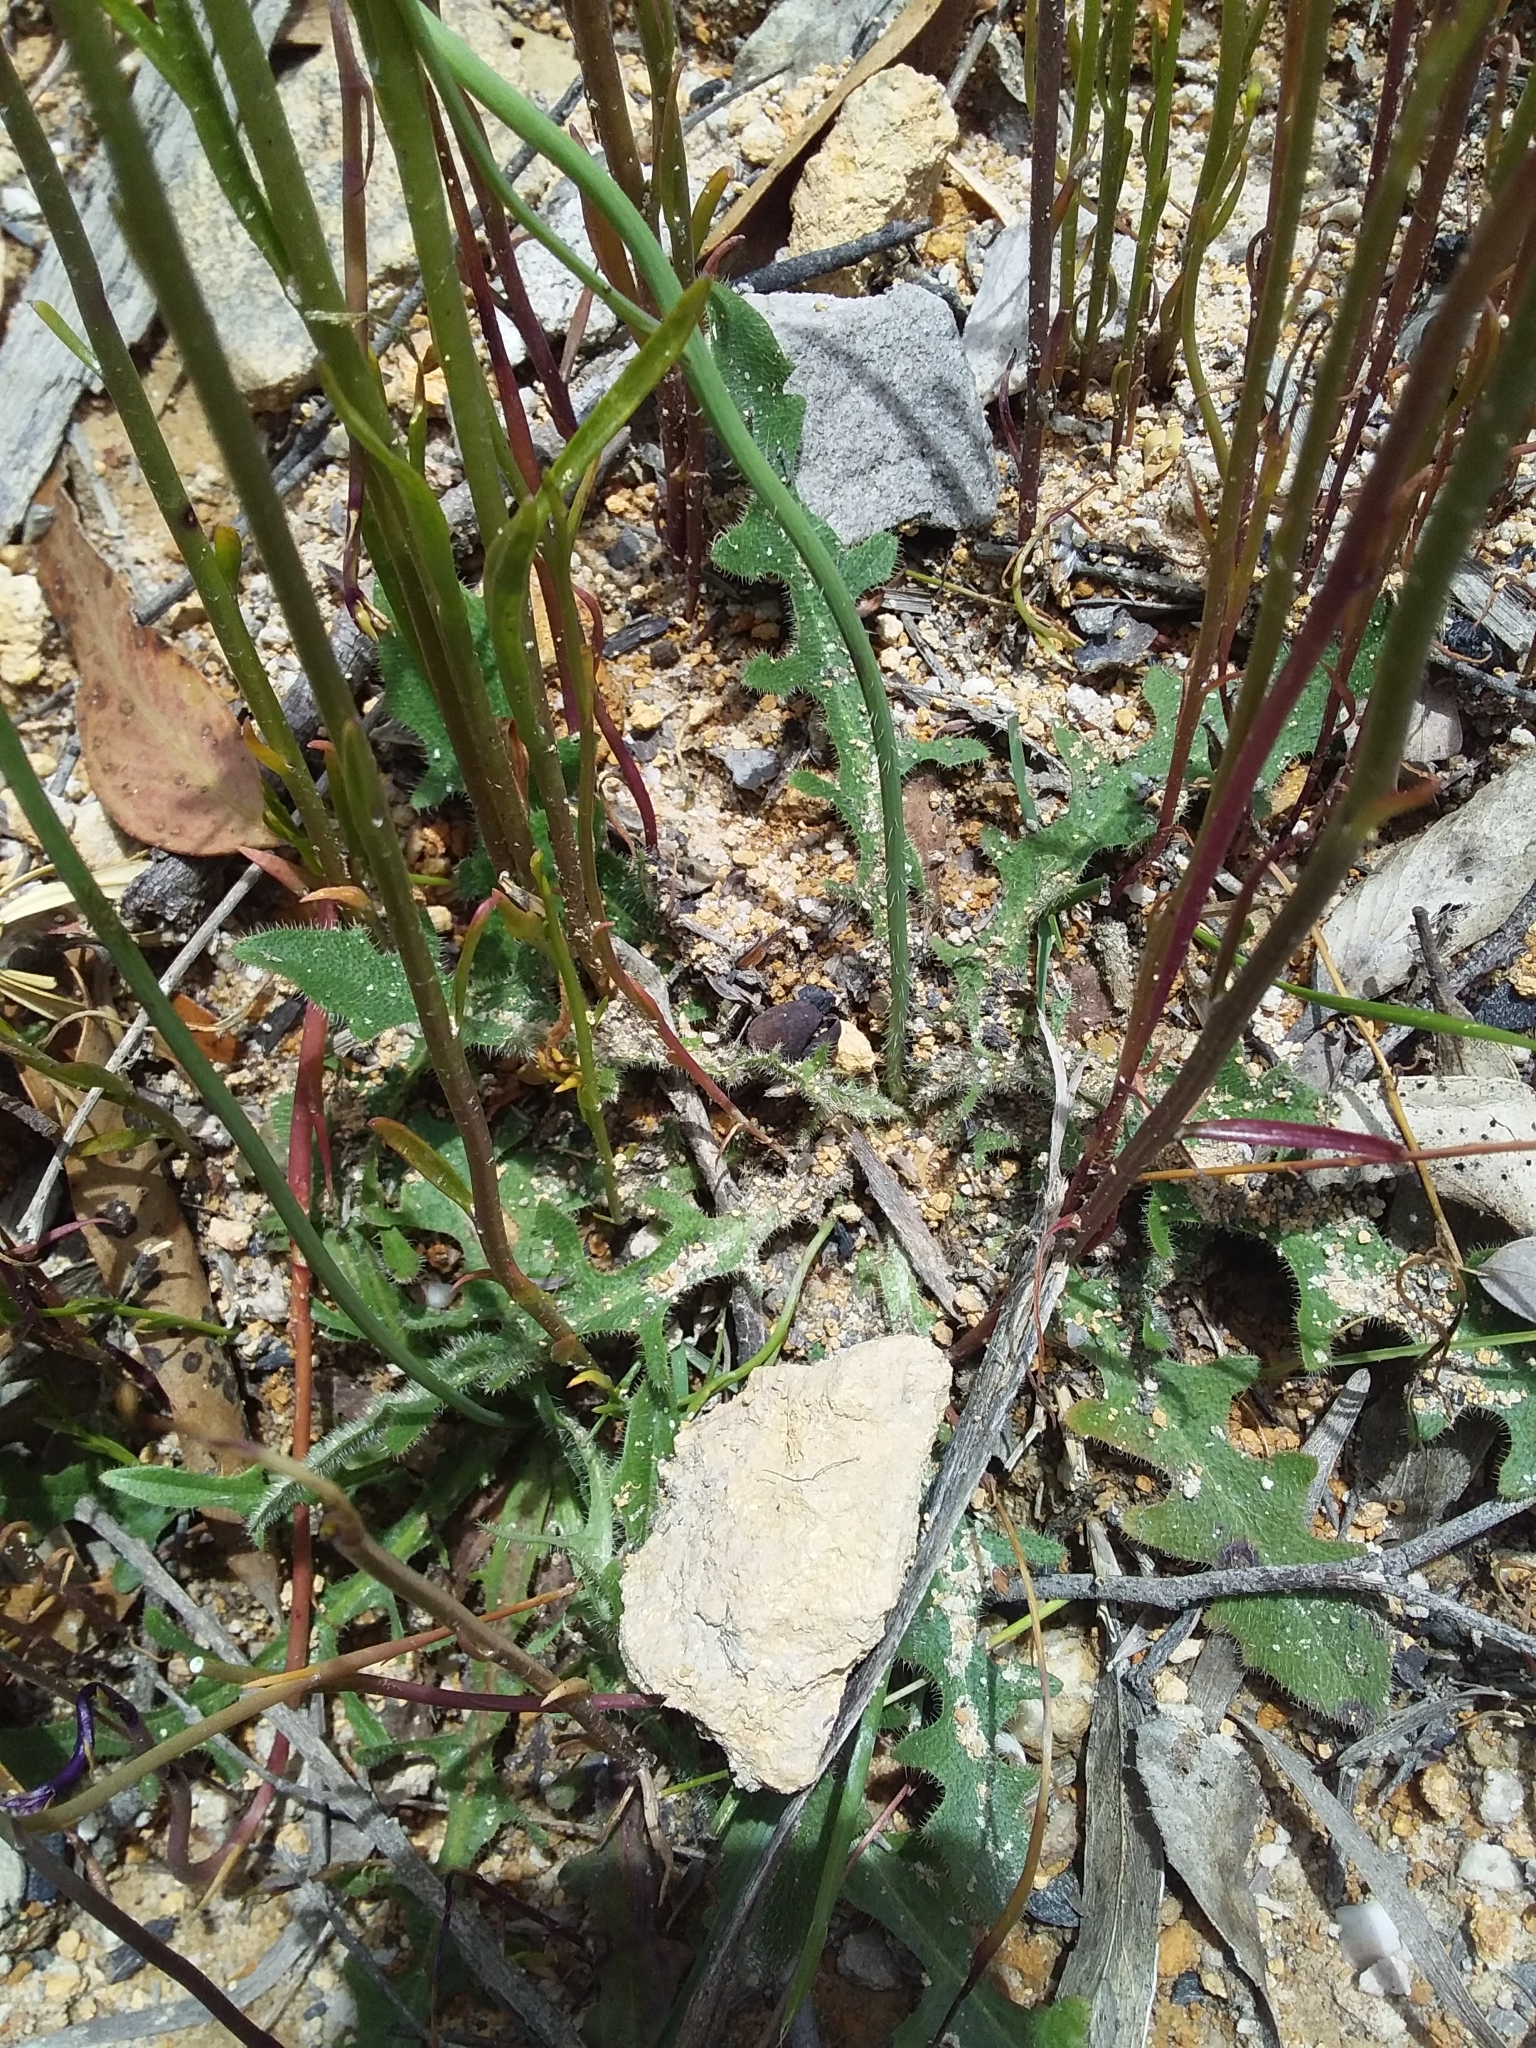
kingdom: Plantae
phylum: Tracheophyta
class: Magnoliopsida
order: Asterales
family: Asteraceae
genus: Hypochaeris
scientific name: Hypochaeris radicata
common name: Flatweed
